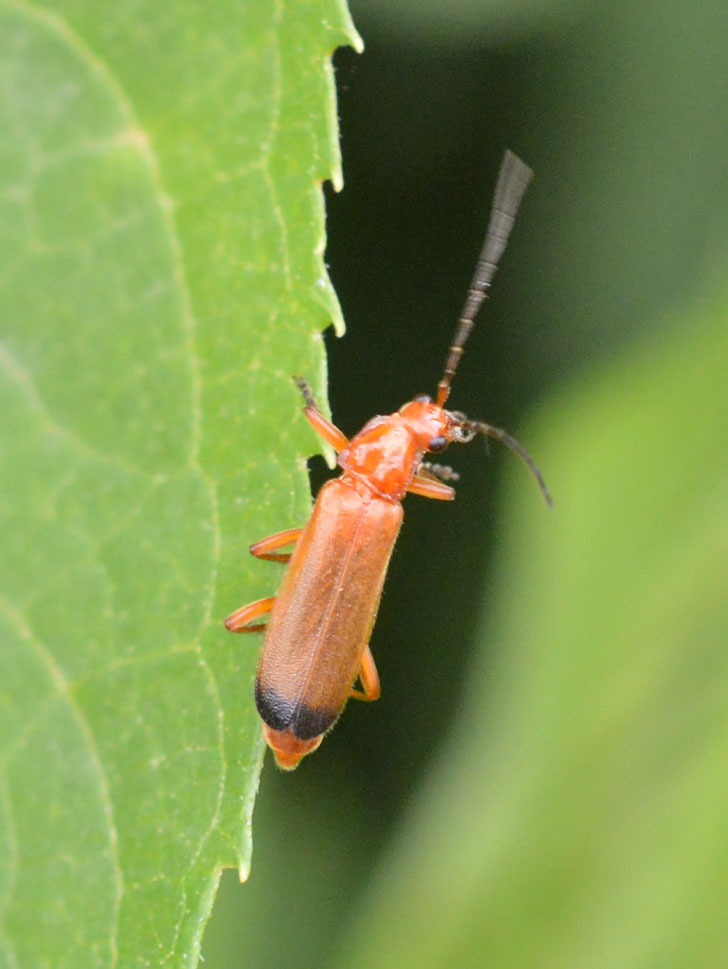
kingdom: Animalia
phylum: Arthropoda
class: Insecta
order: Coleoptera
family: Cantharidae
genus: Rhagonycha
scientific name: Rhagonycha fulva
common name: Common red soldier beetle
